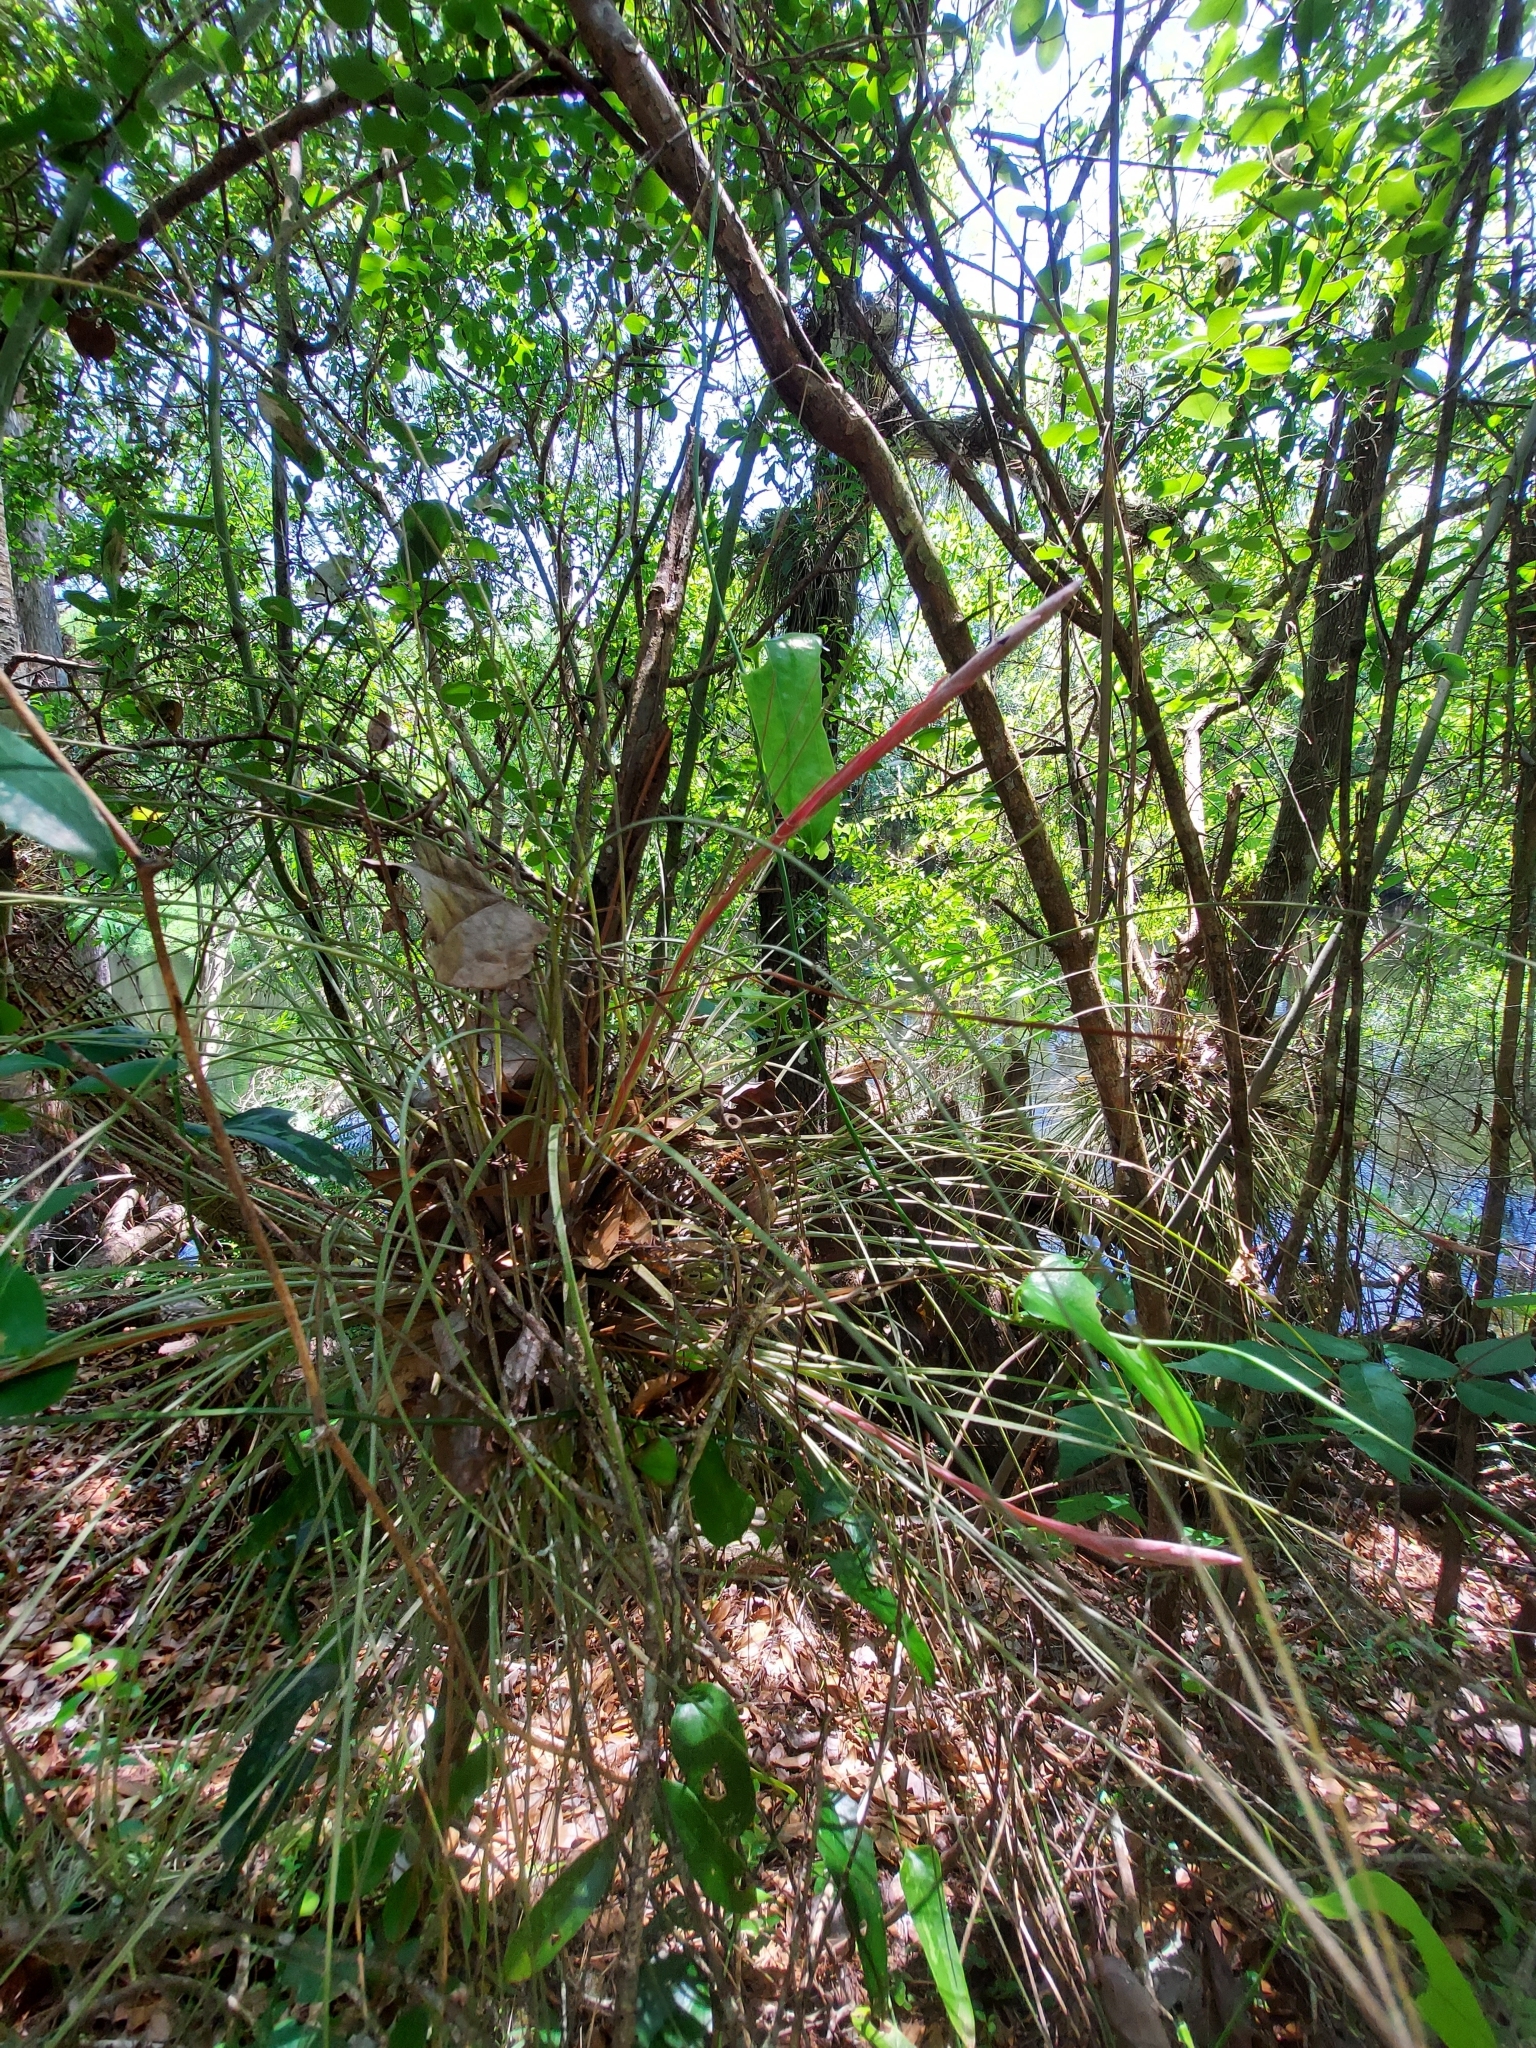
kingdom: Plantae
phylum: Tracheophyta
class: Liliopsida
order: Poales
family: Bromeliaceae
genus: Tillandsia
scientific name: Tillandsia bartramii
